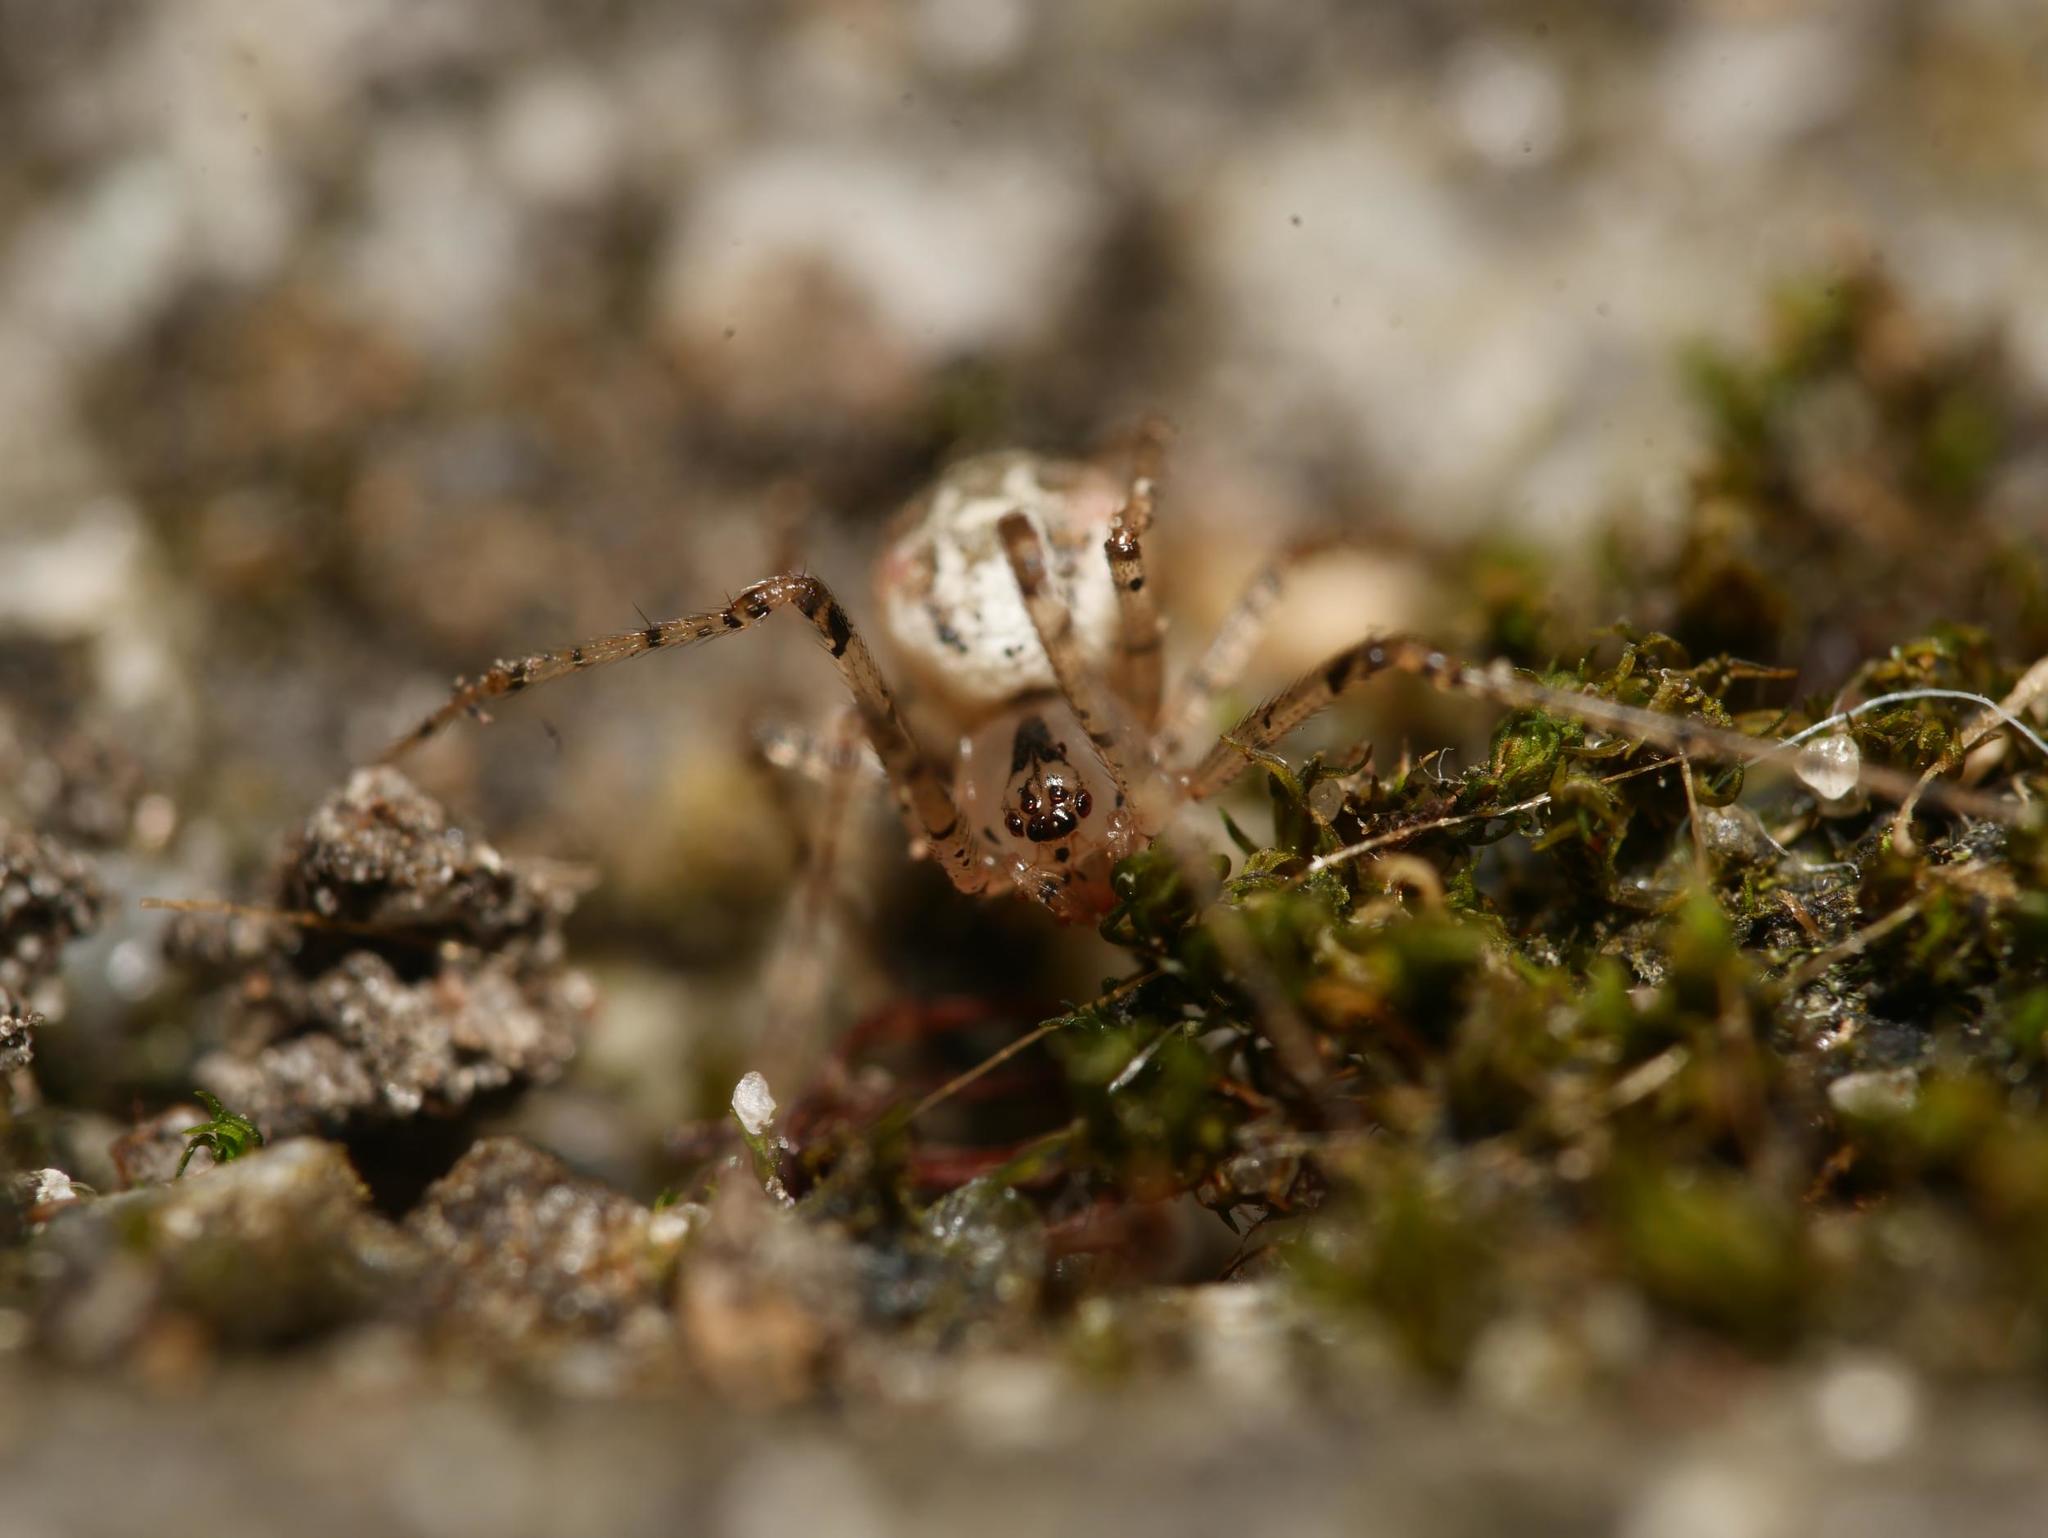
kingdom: Animalia
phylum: Arthropoda
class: Arachnida
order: Araneae
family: Theridiidae
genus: Platnickina
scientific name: Platnickina tincta
